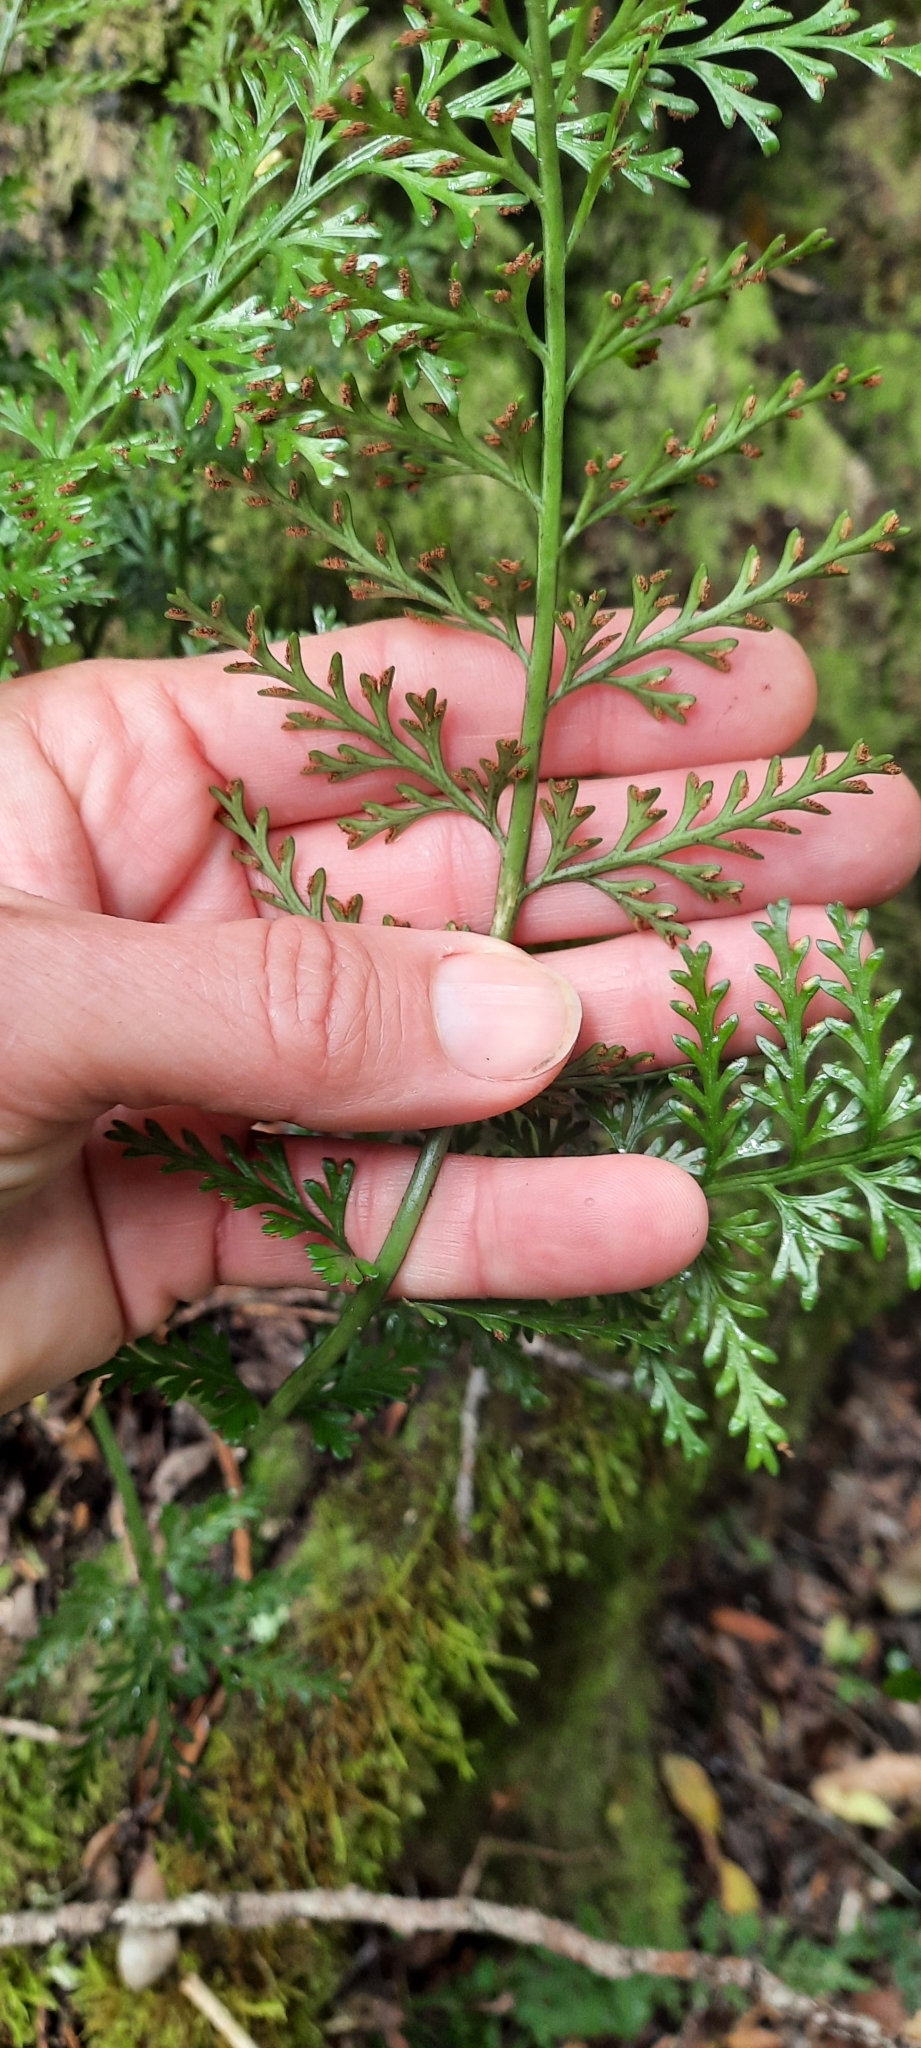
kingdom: Plantae
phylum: Tracheophyta
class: Polypodiopsida
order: Polypodiales
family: Aspleniaceae
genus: Asplenium
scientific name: Asplenium rutifolium
